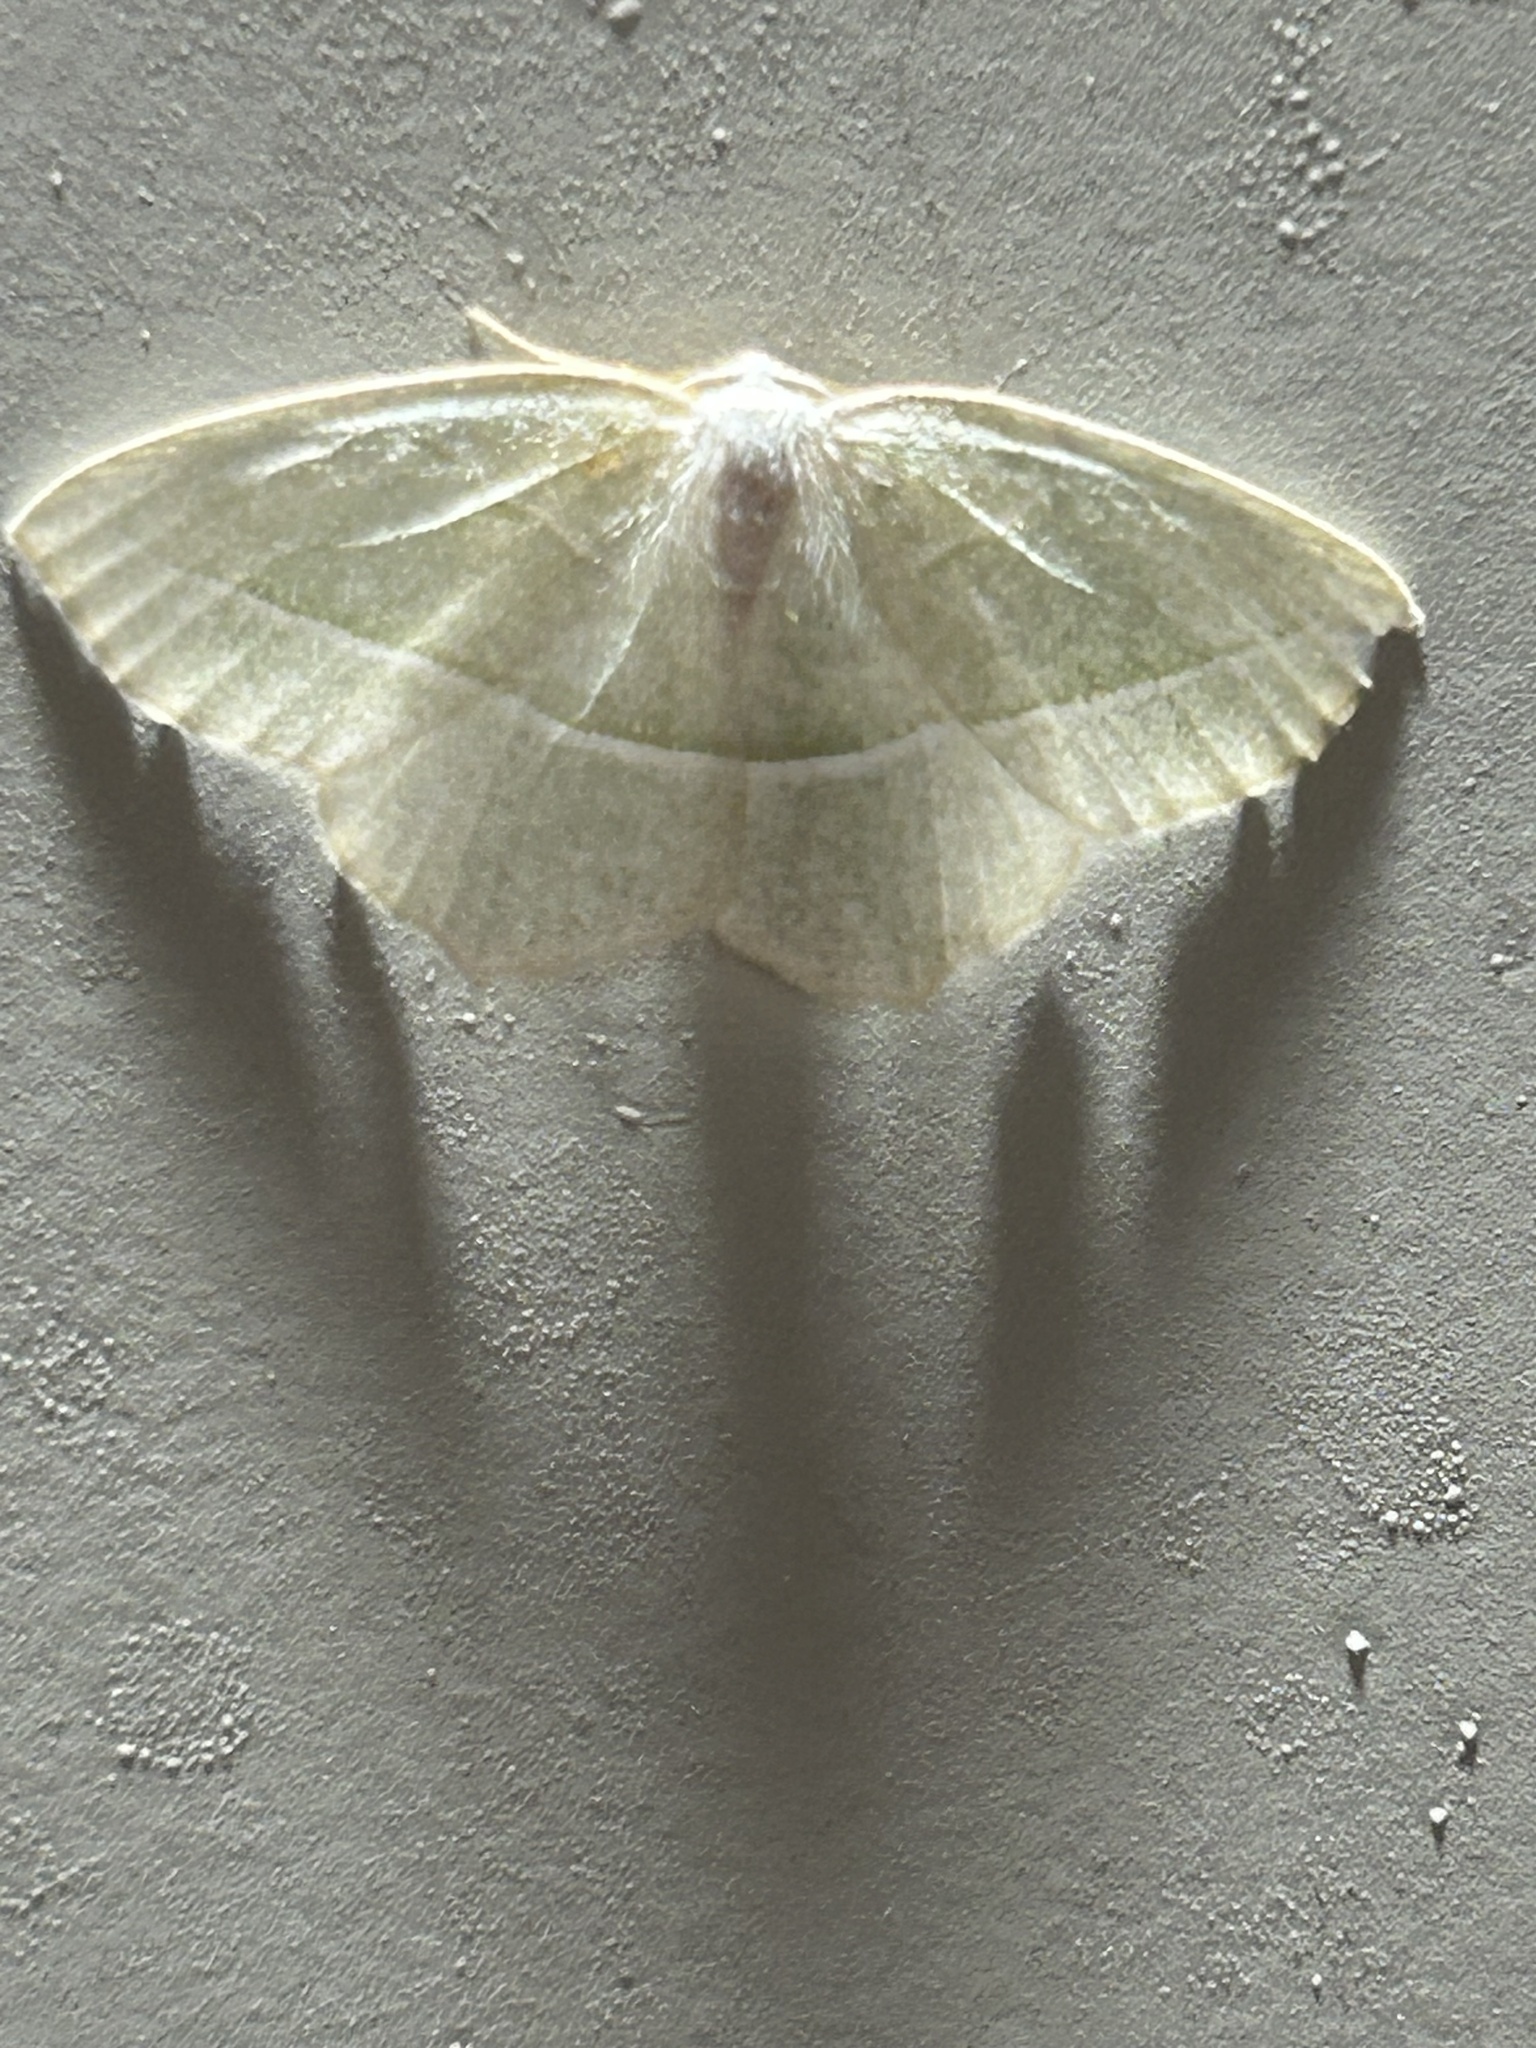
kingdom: Animalia
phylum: Arthropoda
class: Insecta
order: Lepidoptera
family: Geometridae
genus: Campaea
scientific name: Campaea perlata
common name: Fringed looper
